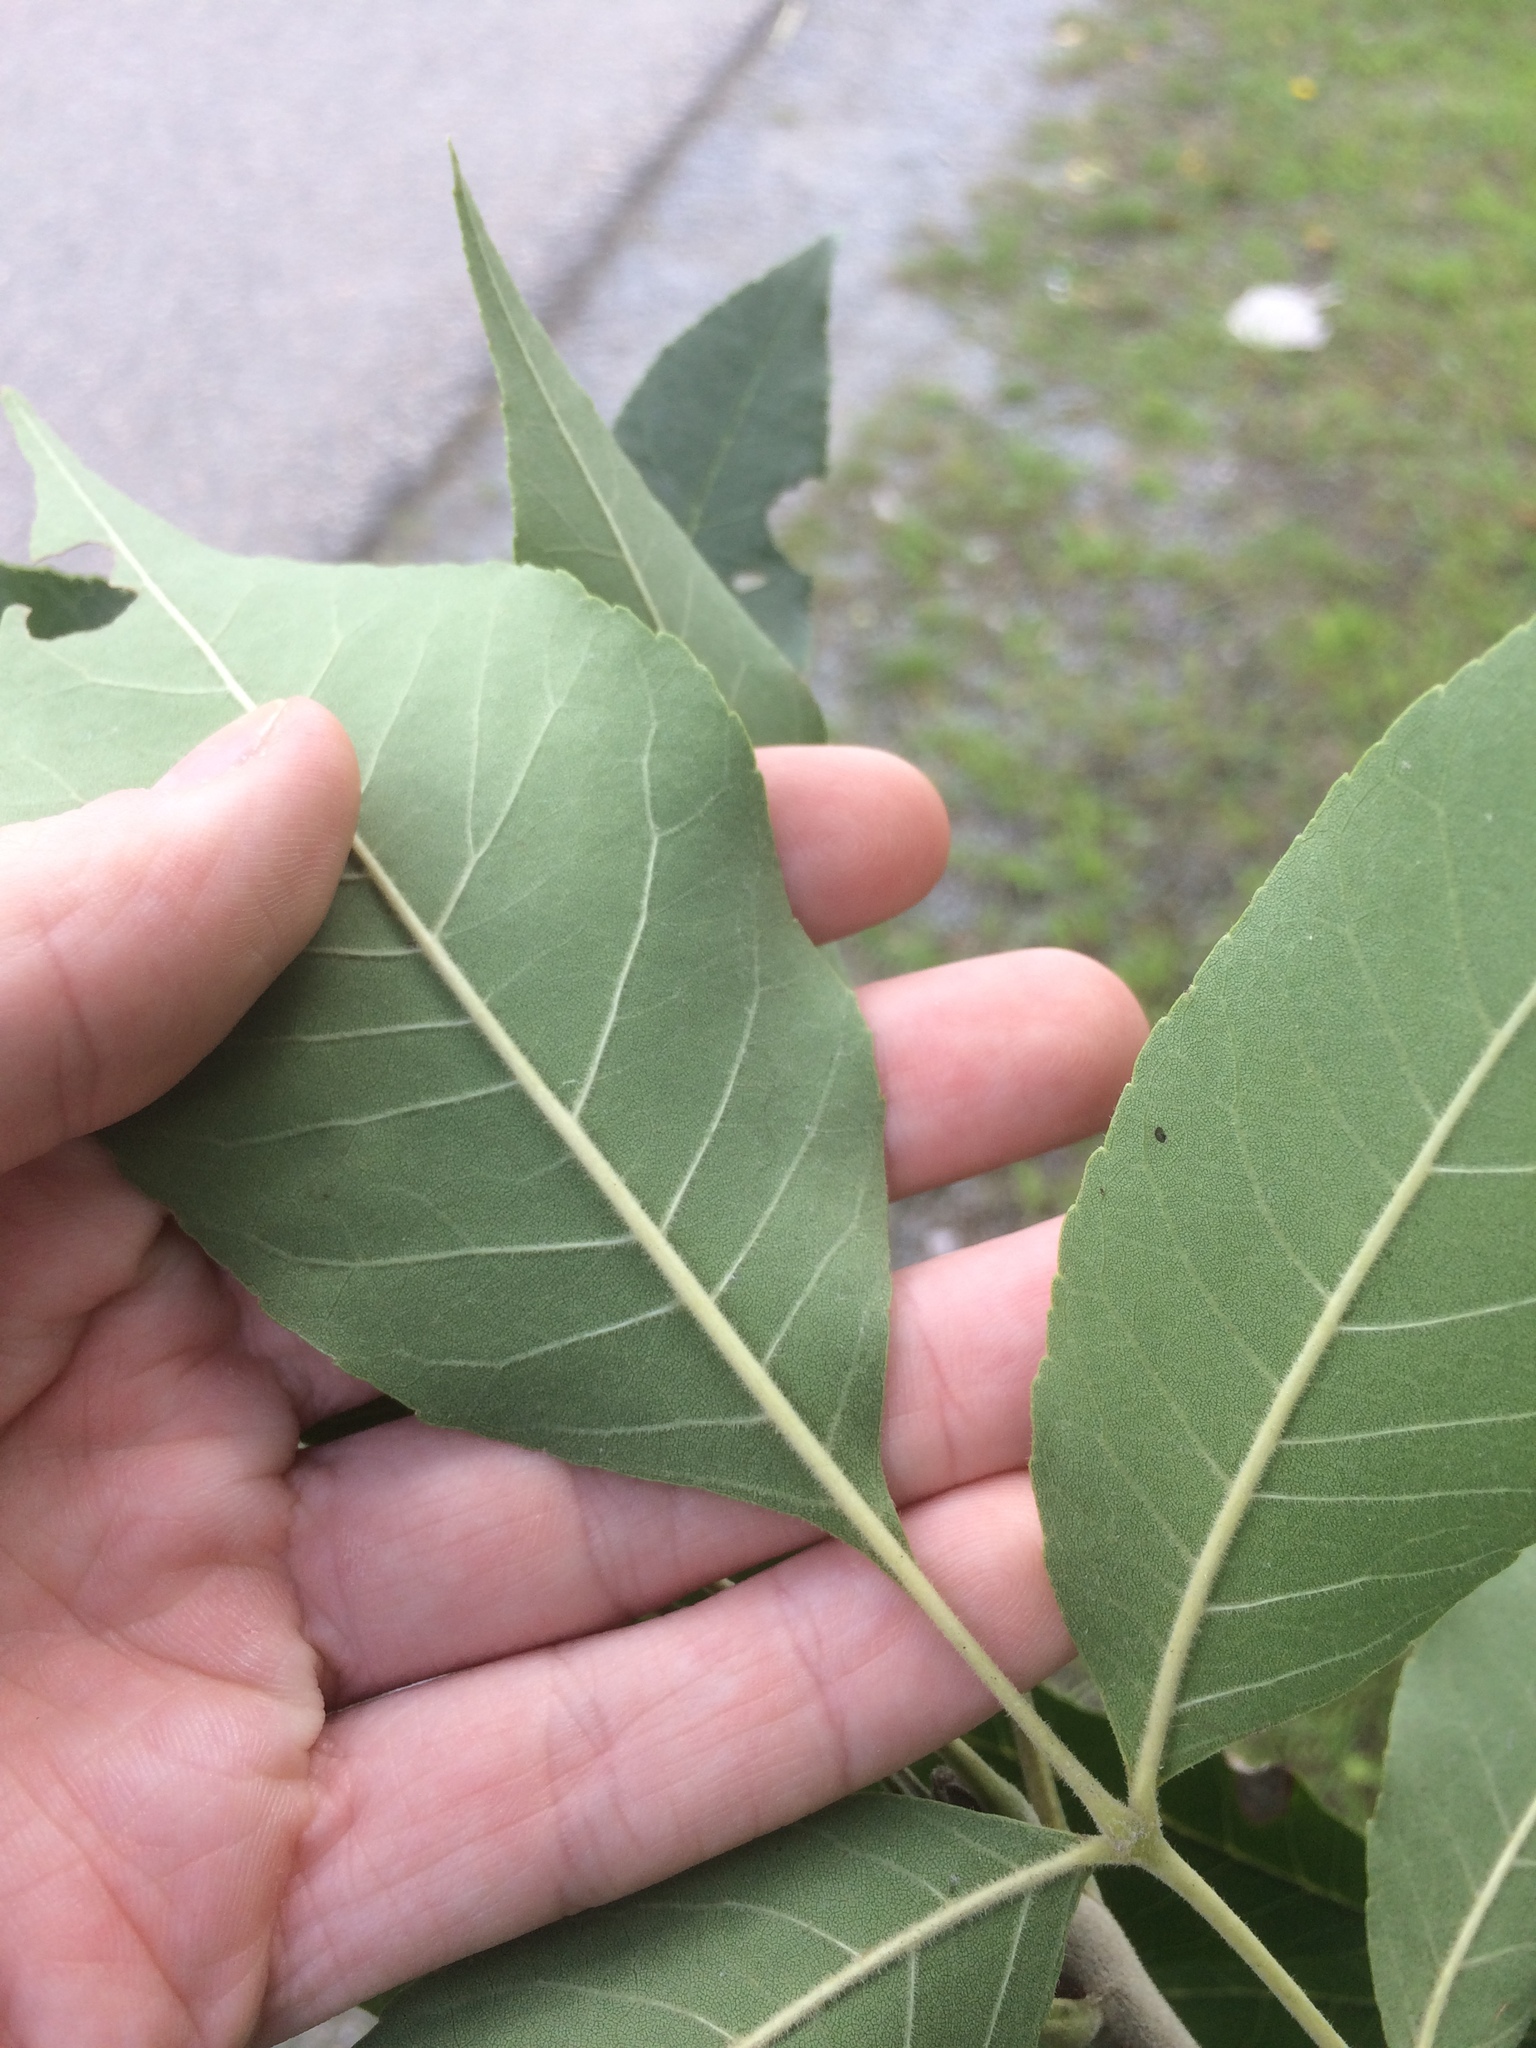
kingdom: Plantae
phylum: Tracheophyta
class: Magnoliopsida
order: Lamiales
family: Oleaceae
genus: Fraxinus
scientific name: Fraxinus pennsylvanica
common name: Green ash
